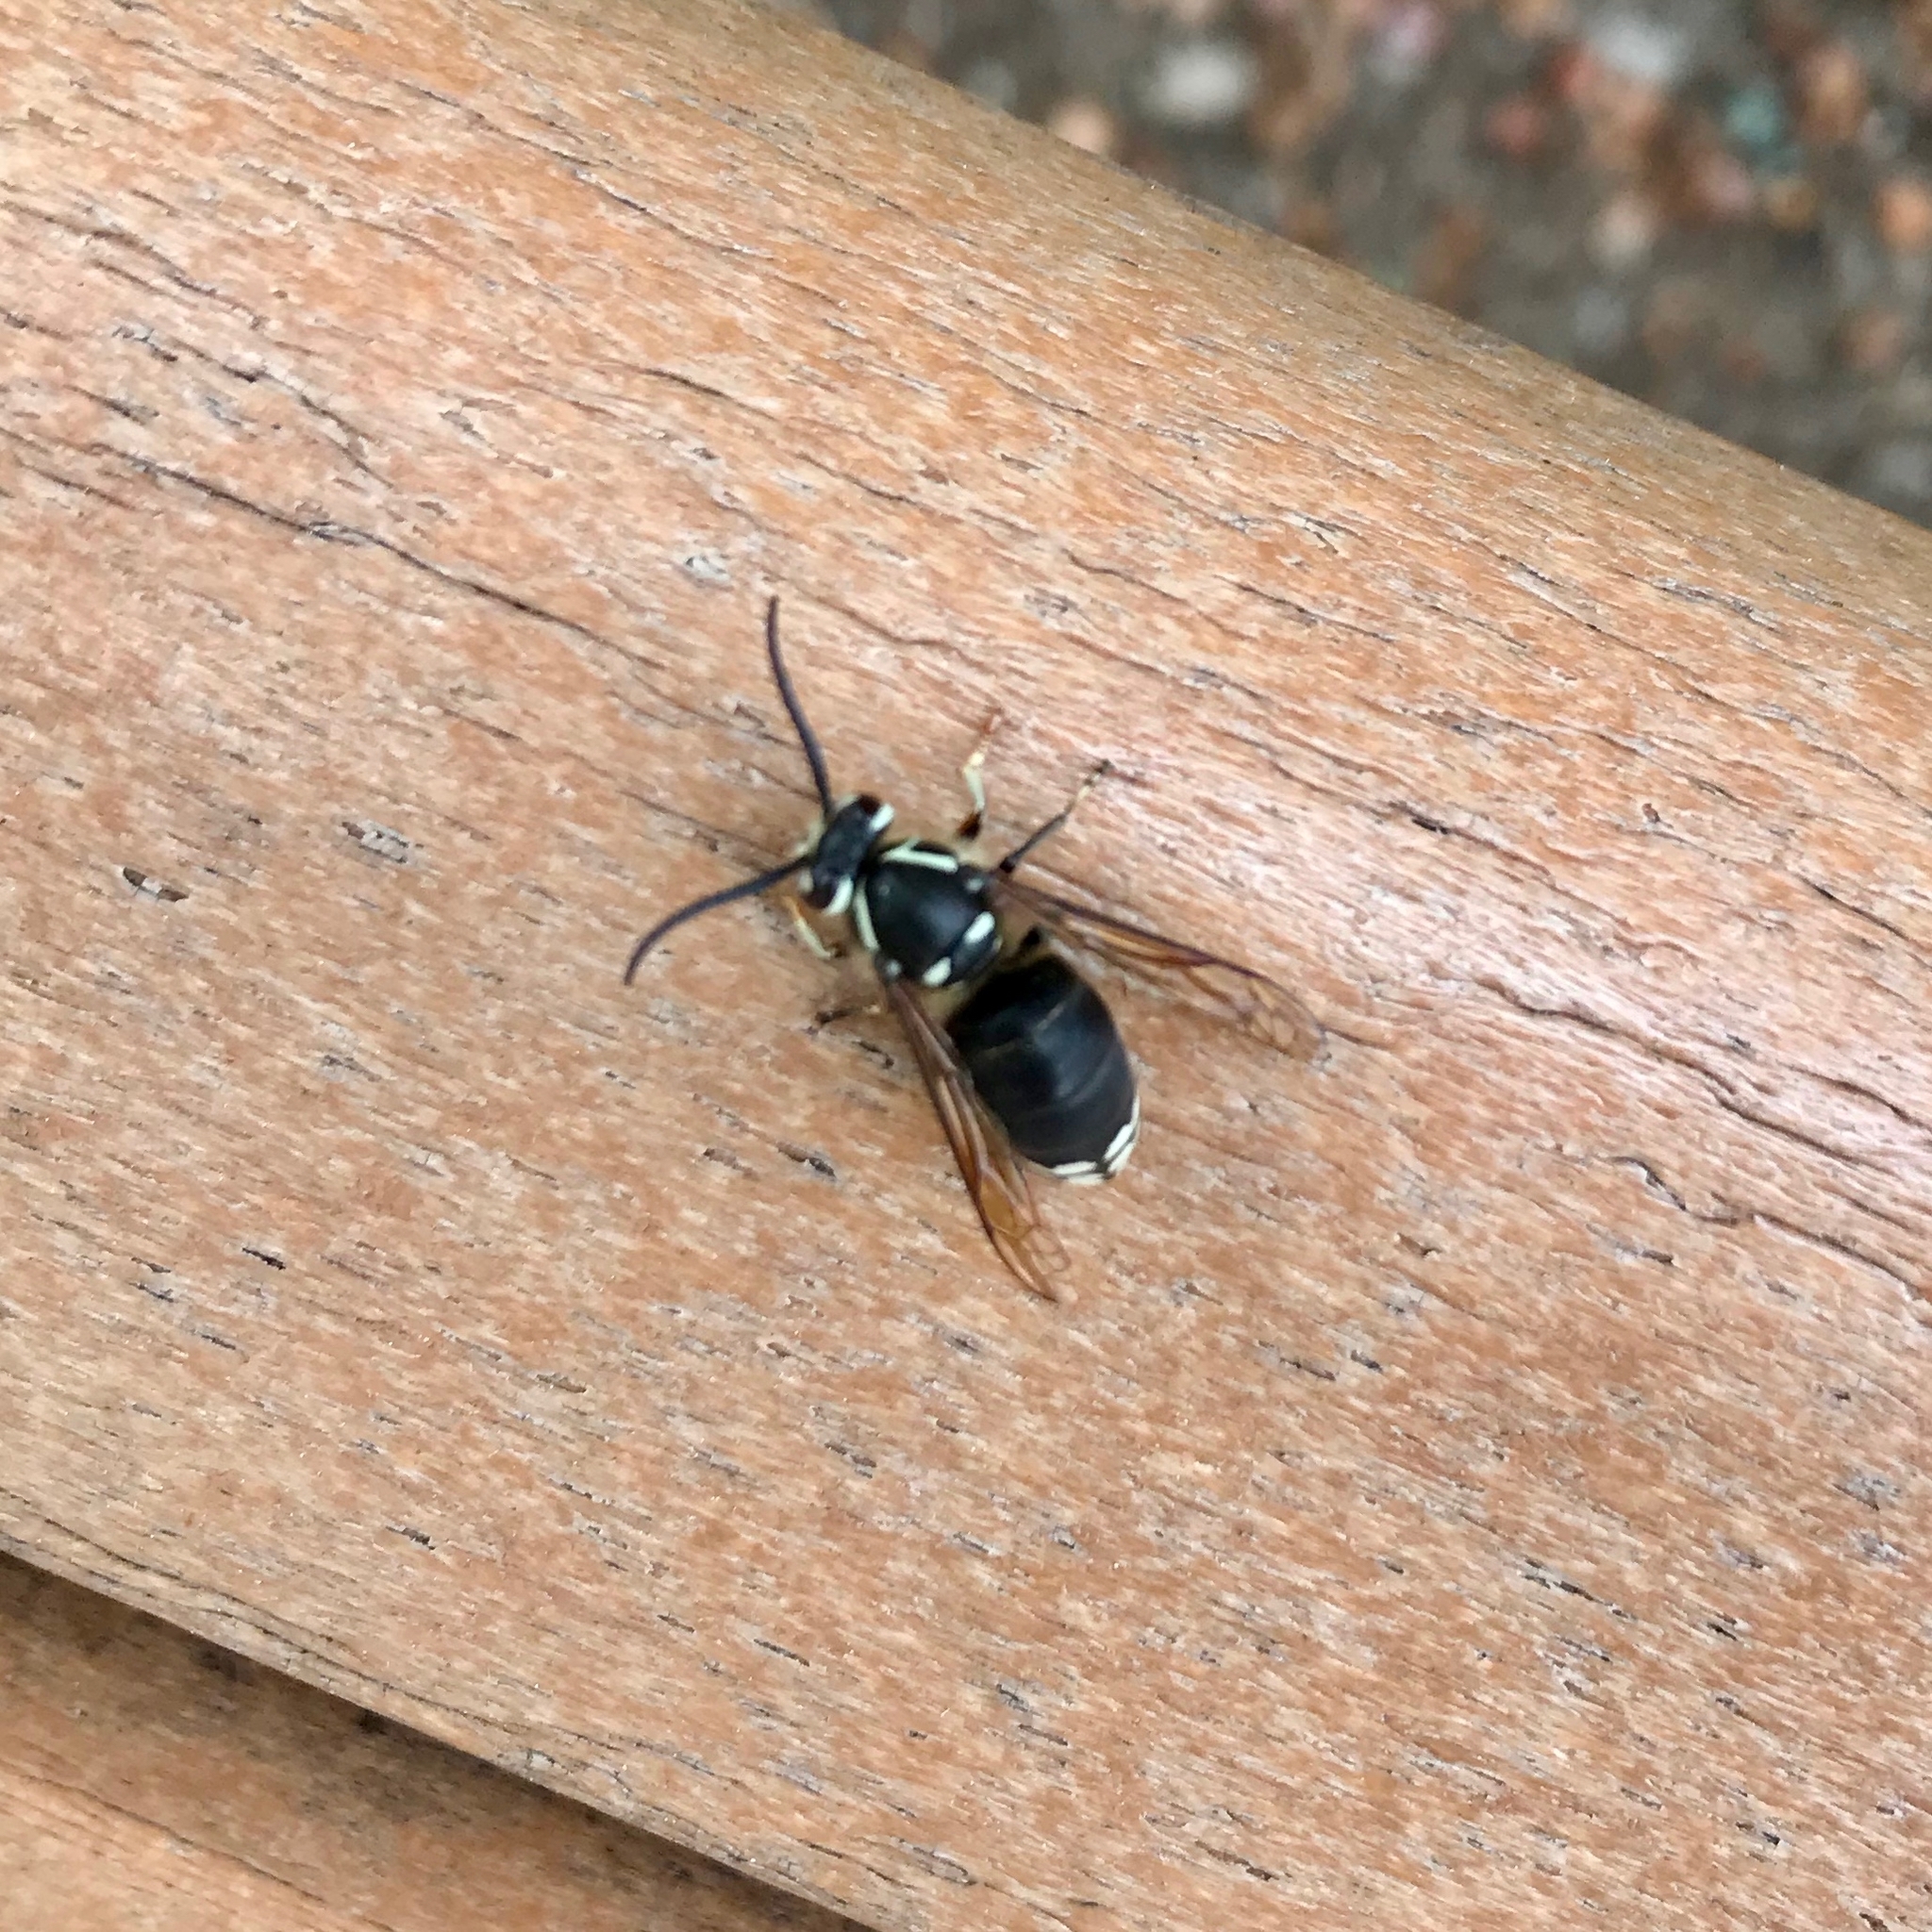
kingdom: Animalia
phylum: Arthropoda
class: Insecta
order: Hymenoptera
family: Vespidae
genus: Dolichovespula
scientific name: Dolichovespula maculata
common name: Bald-faced hornet
